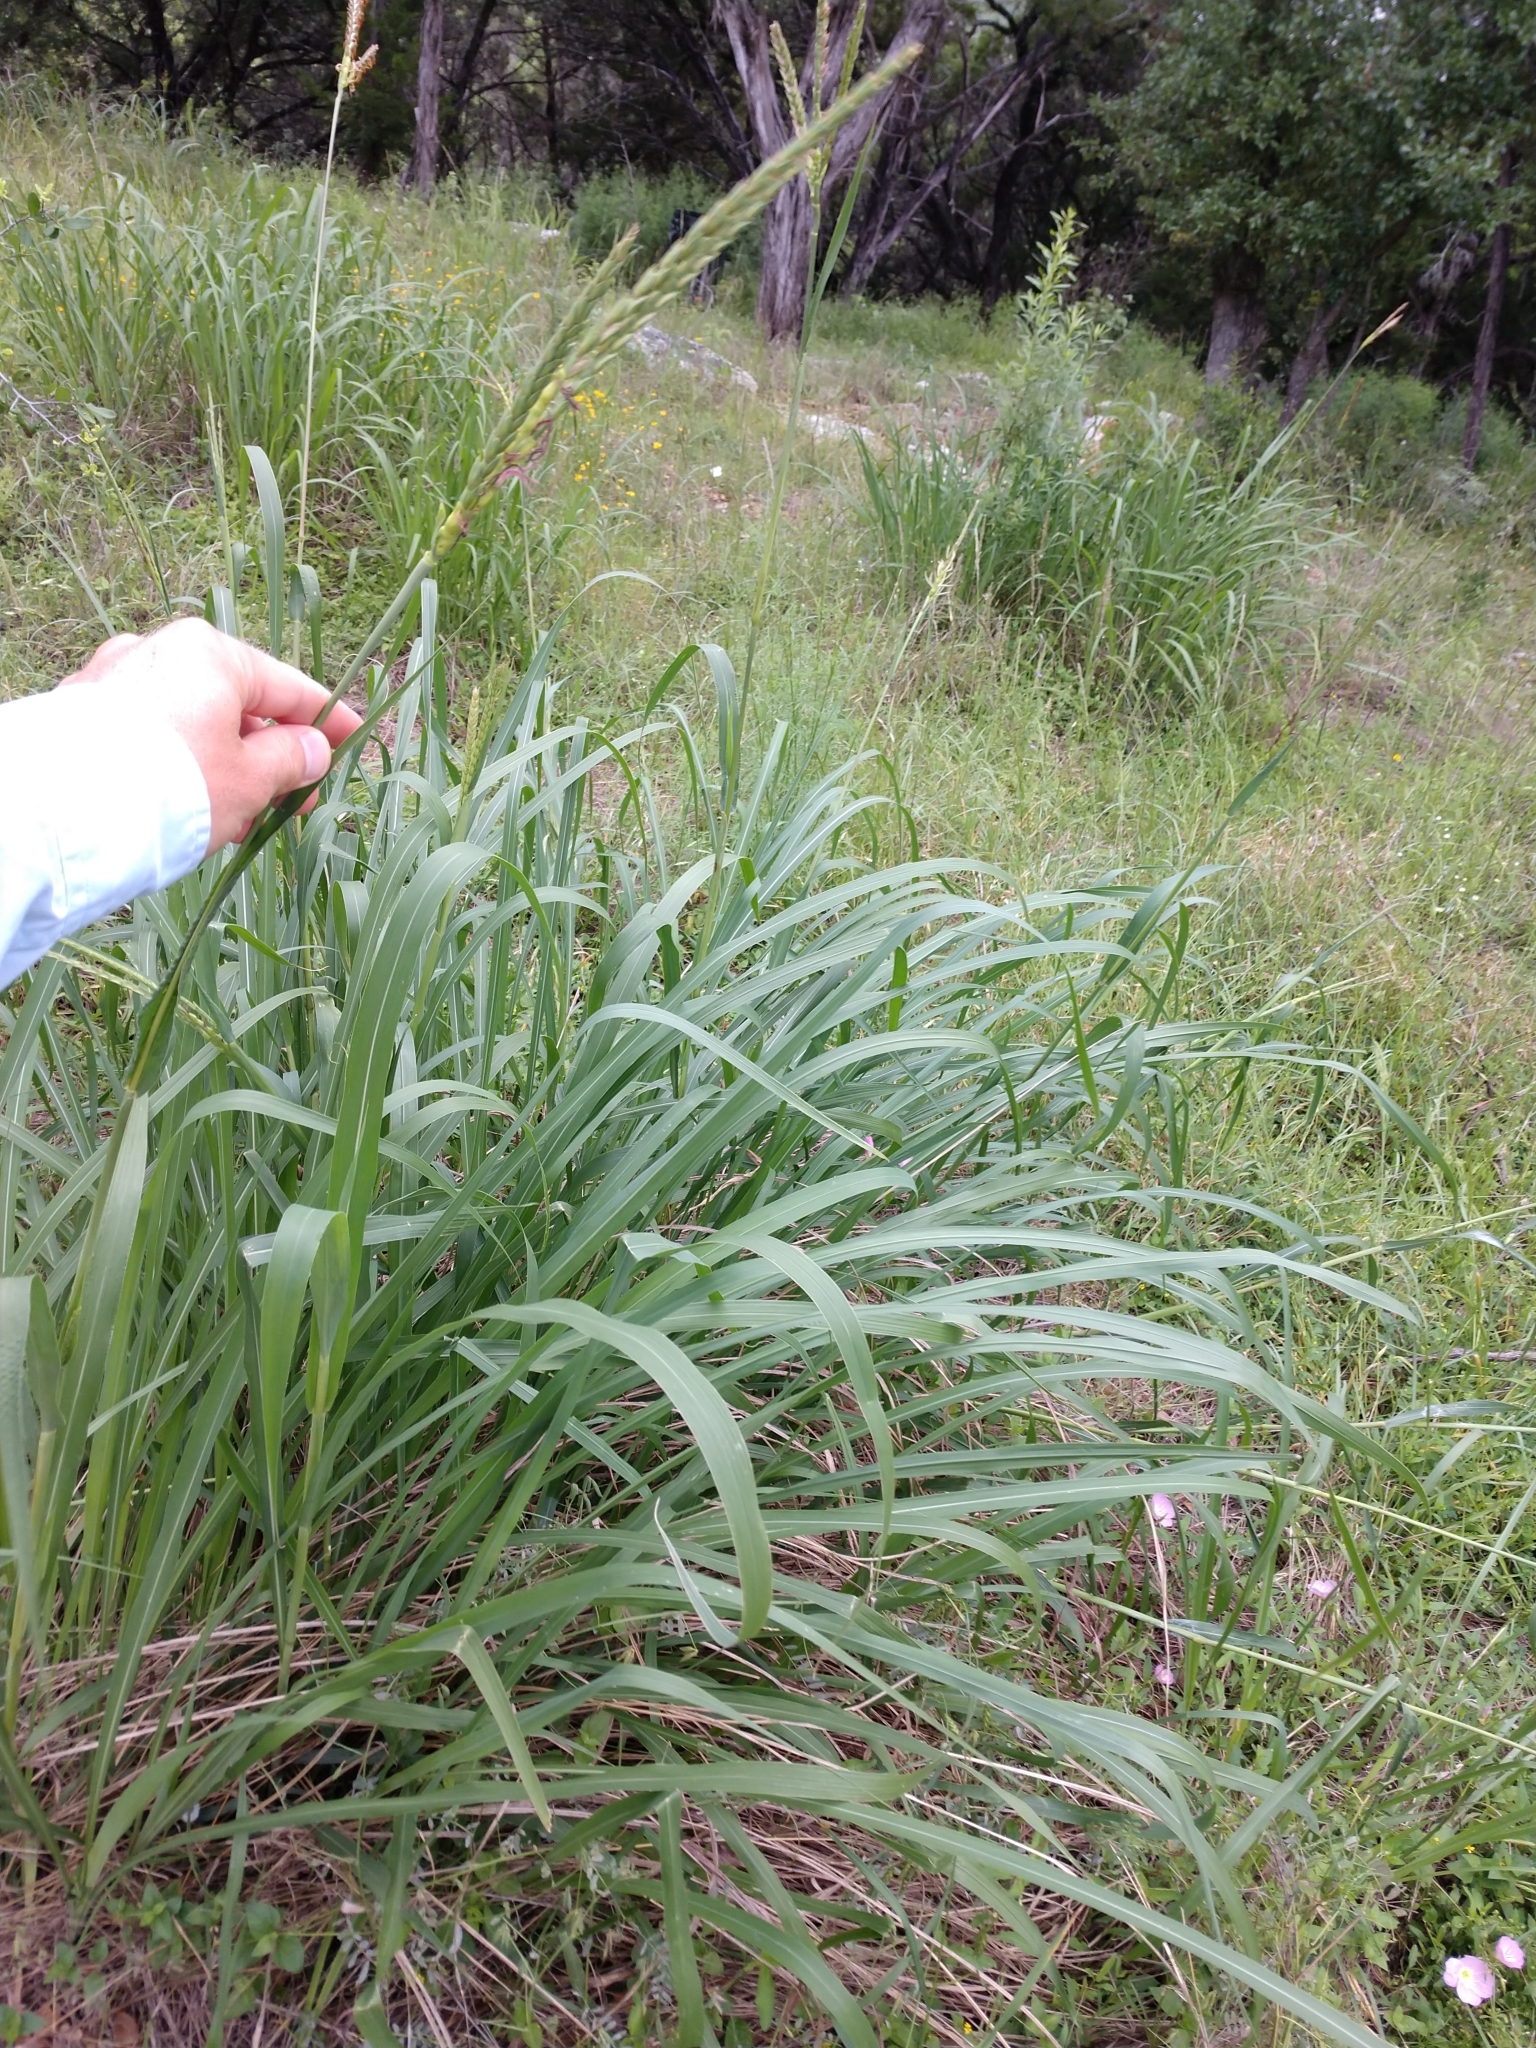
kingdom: Plantae
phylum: Tracheophyta
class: Liliopsida
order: Poales
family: Poaceae
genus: Tripsacum
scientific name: Tripsacum dactyloides
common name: Buffalo-grass
